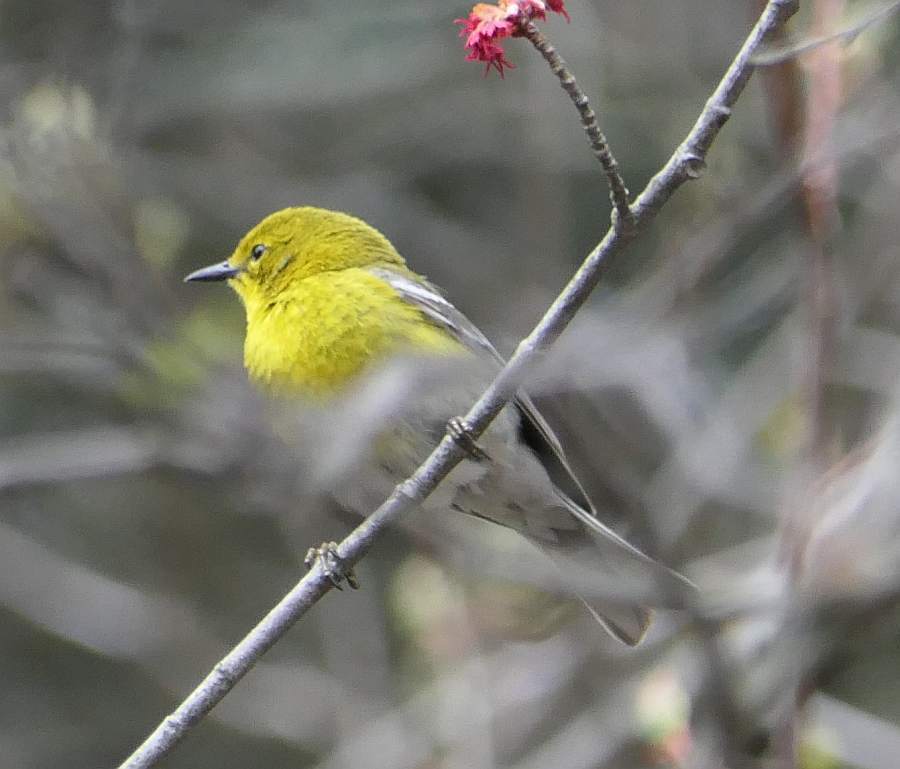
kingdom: Animalia
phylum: Chordata
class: Aves
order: Passeriformes
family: Parulidae
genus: Setophaga
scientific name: Setophaga pinus
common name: Pine warbler
